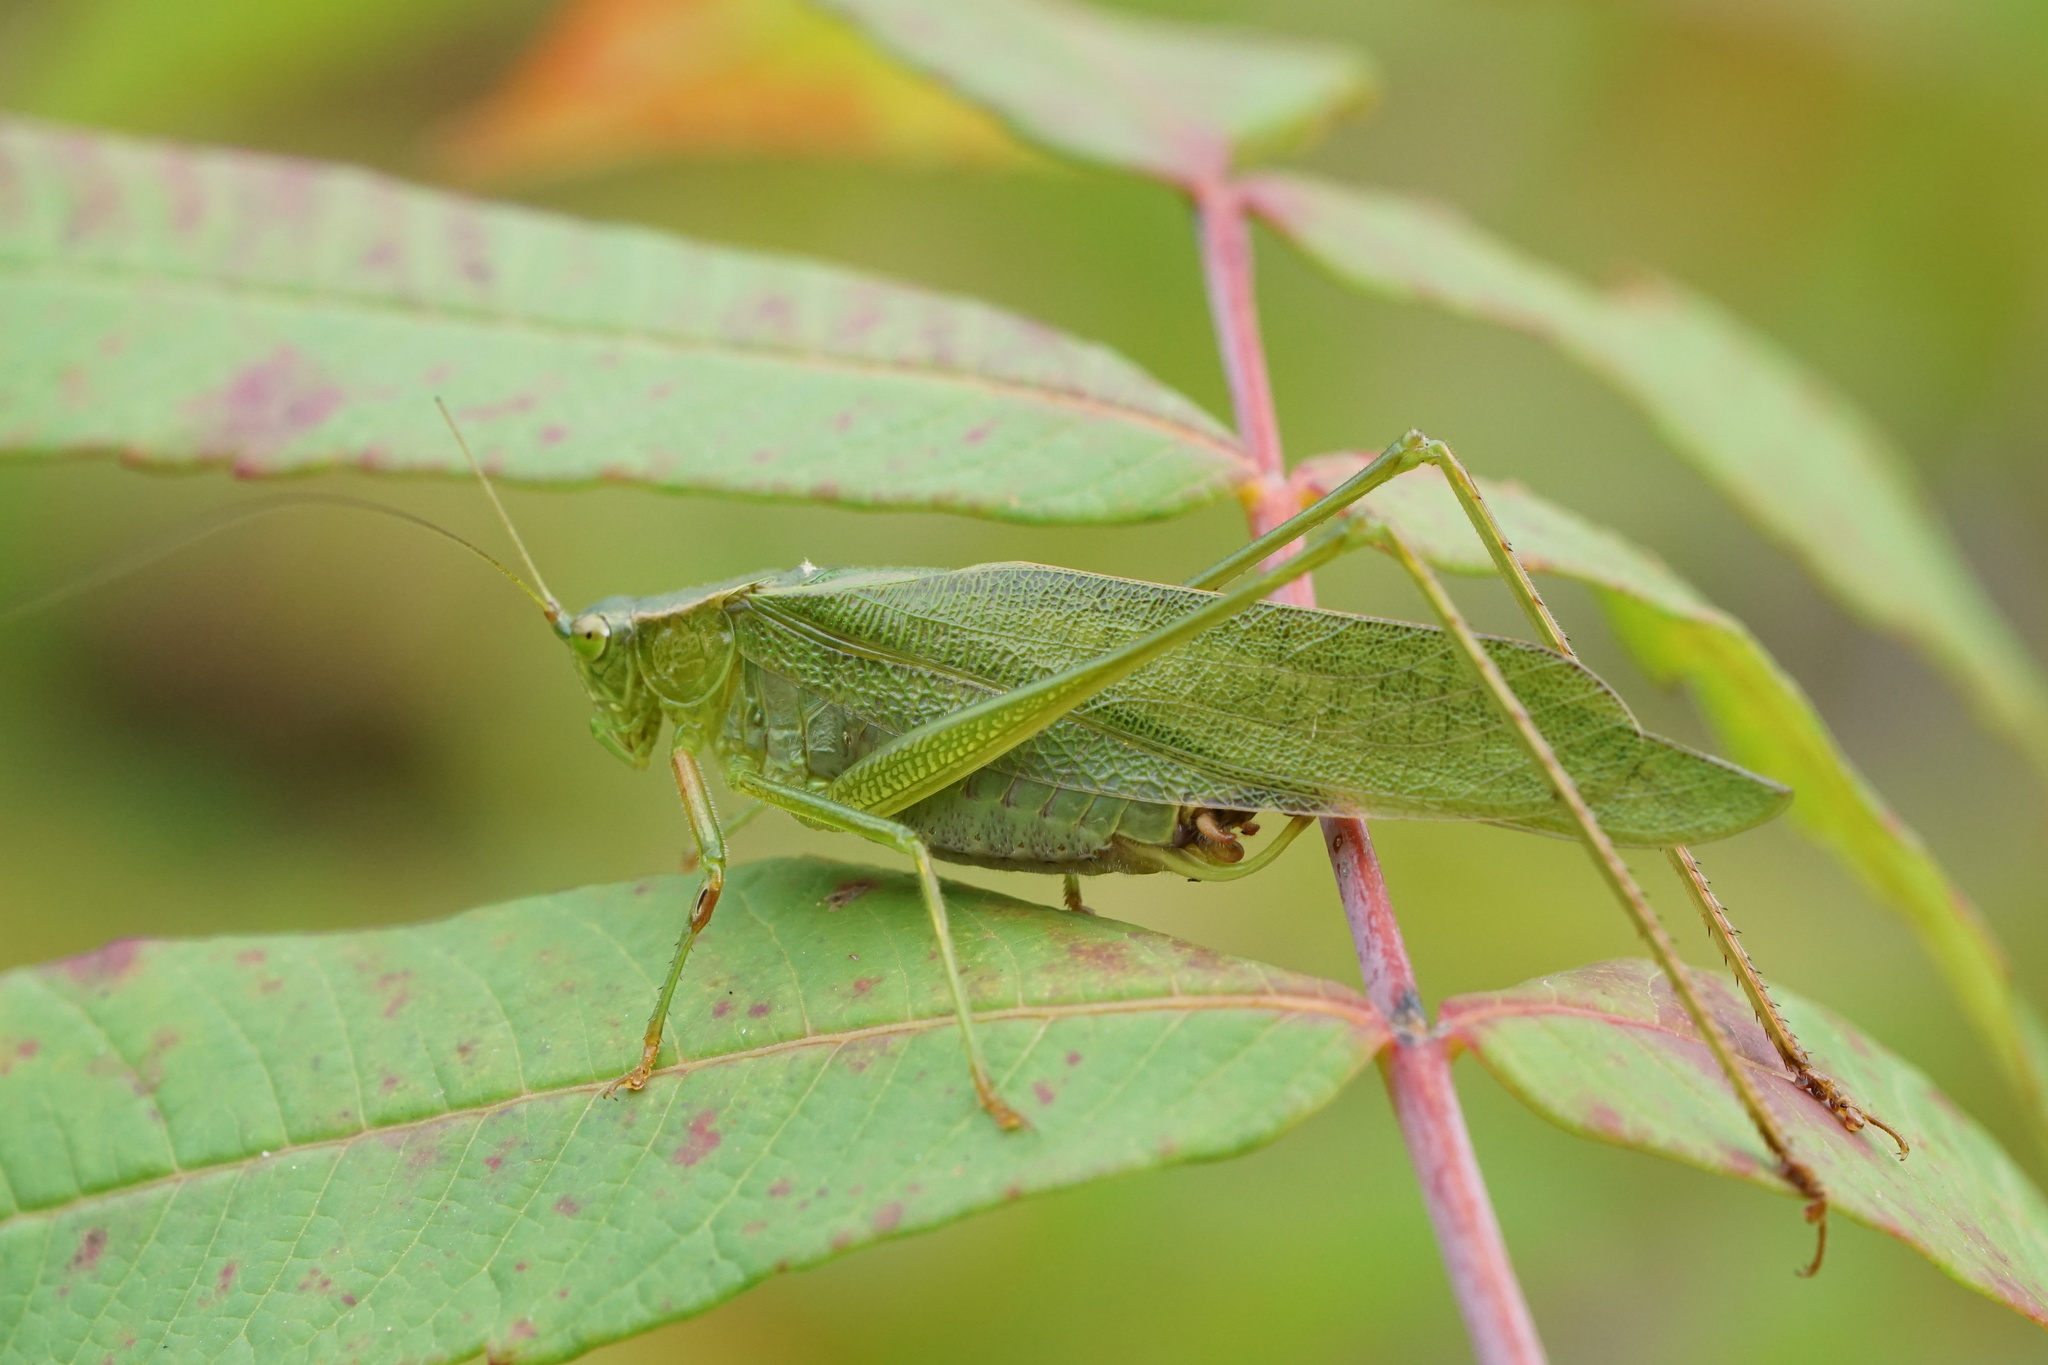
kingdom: Animalia
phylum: Arthropoda
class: Insecta
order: Orthoptera
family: Tettigoniidae
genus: Scudderia
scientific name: Scudderia furcata
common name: Fork-tailed bush katydid
